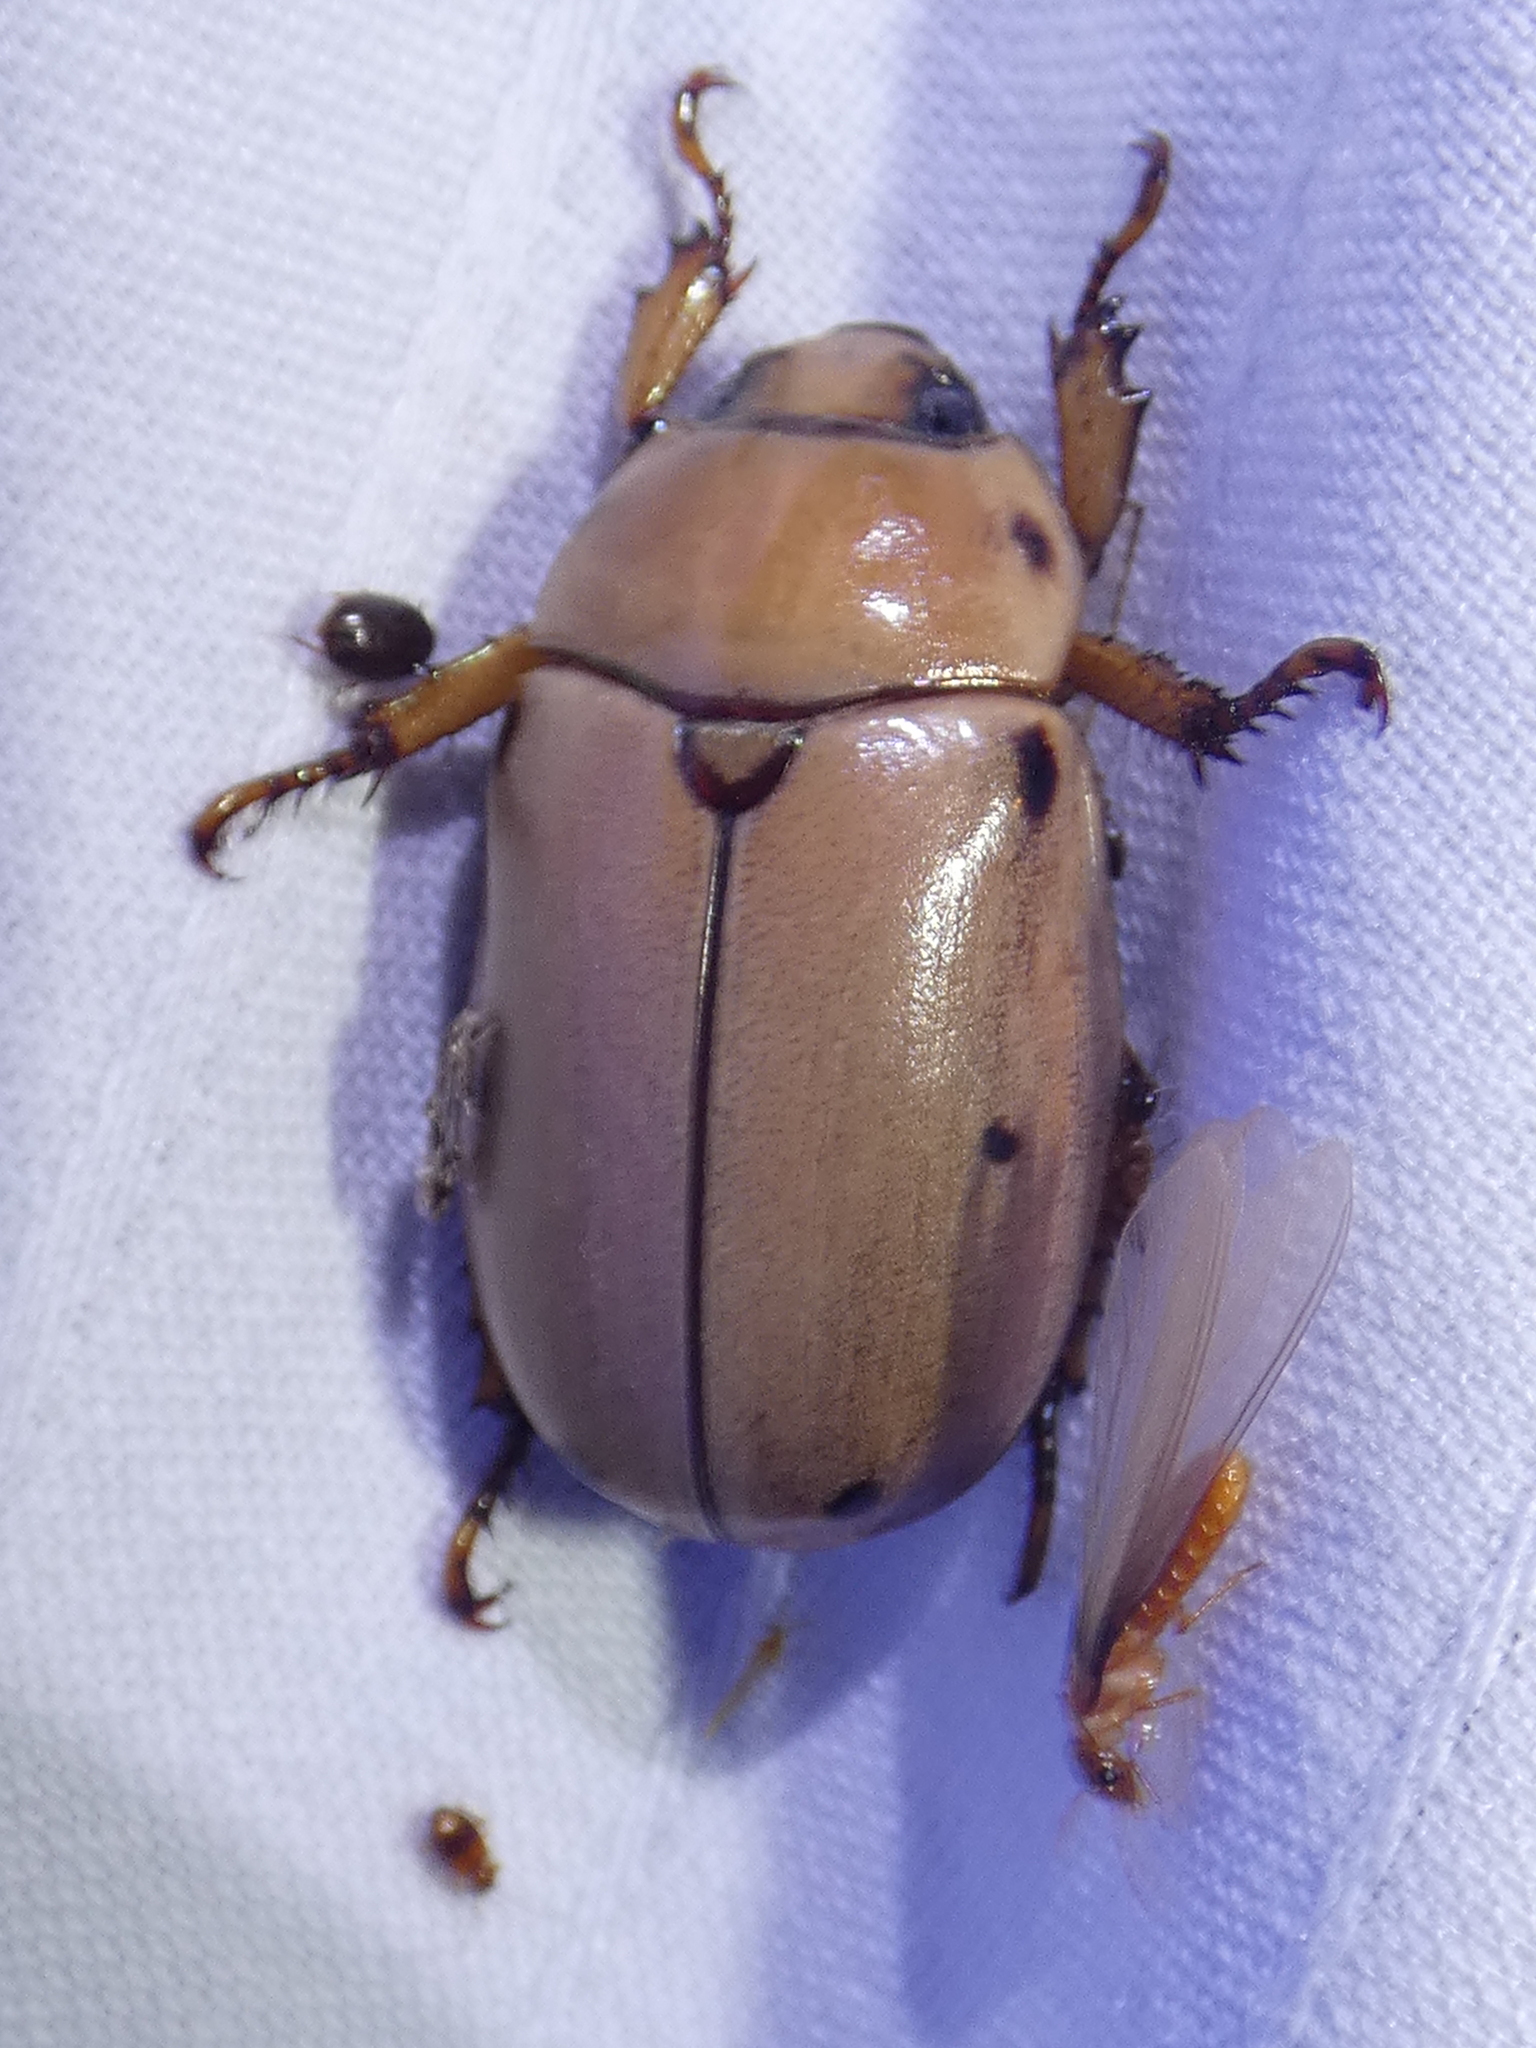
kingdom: Animalia
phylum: Arthropoda
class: Insecta
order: Coleoptera
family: Scarabaeidae
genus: Pelidnota
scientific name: Pelidnota punctata
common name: Grapevine beetle
